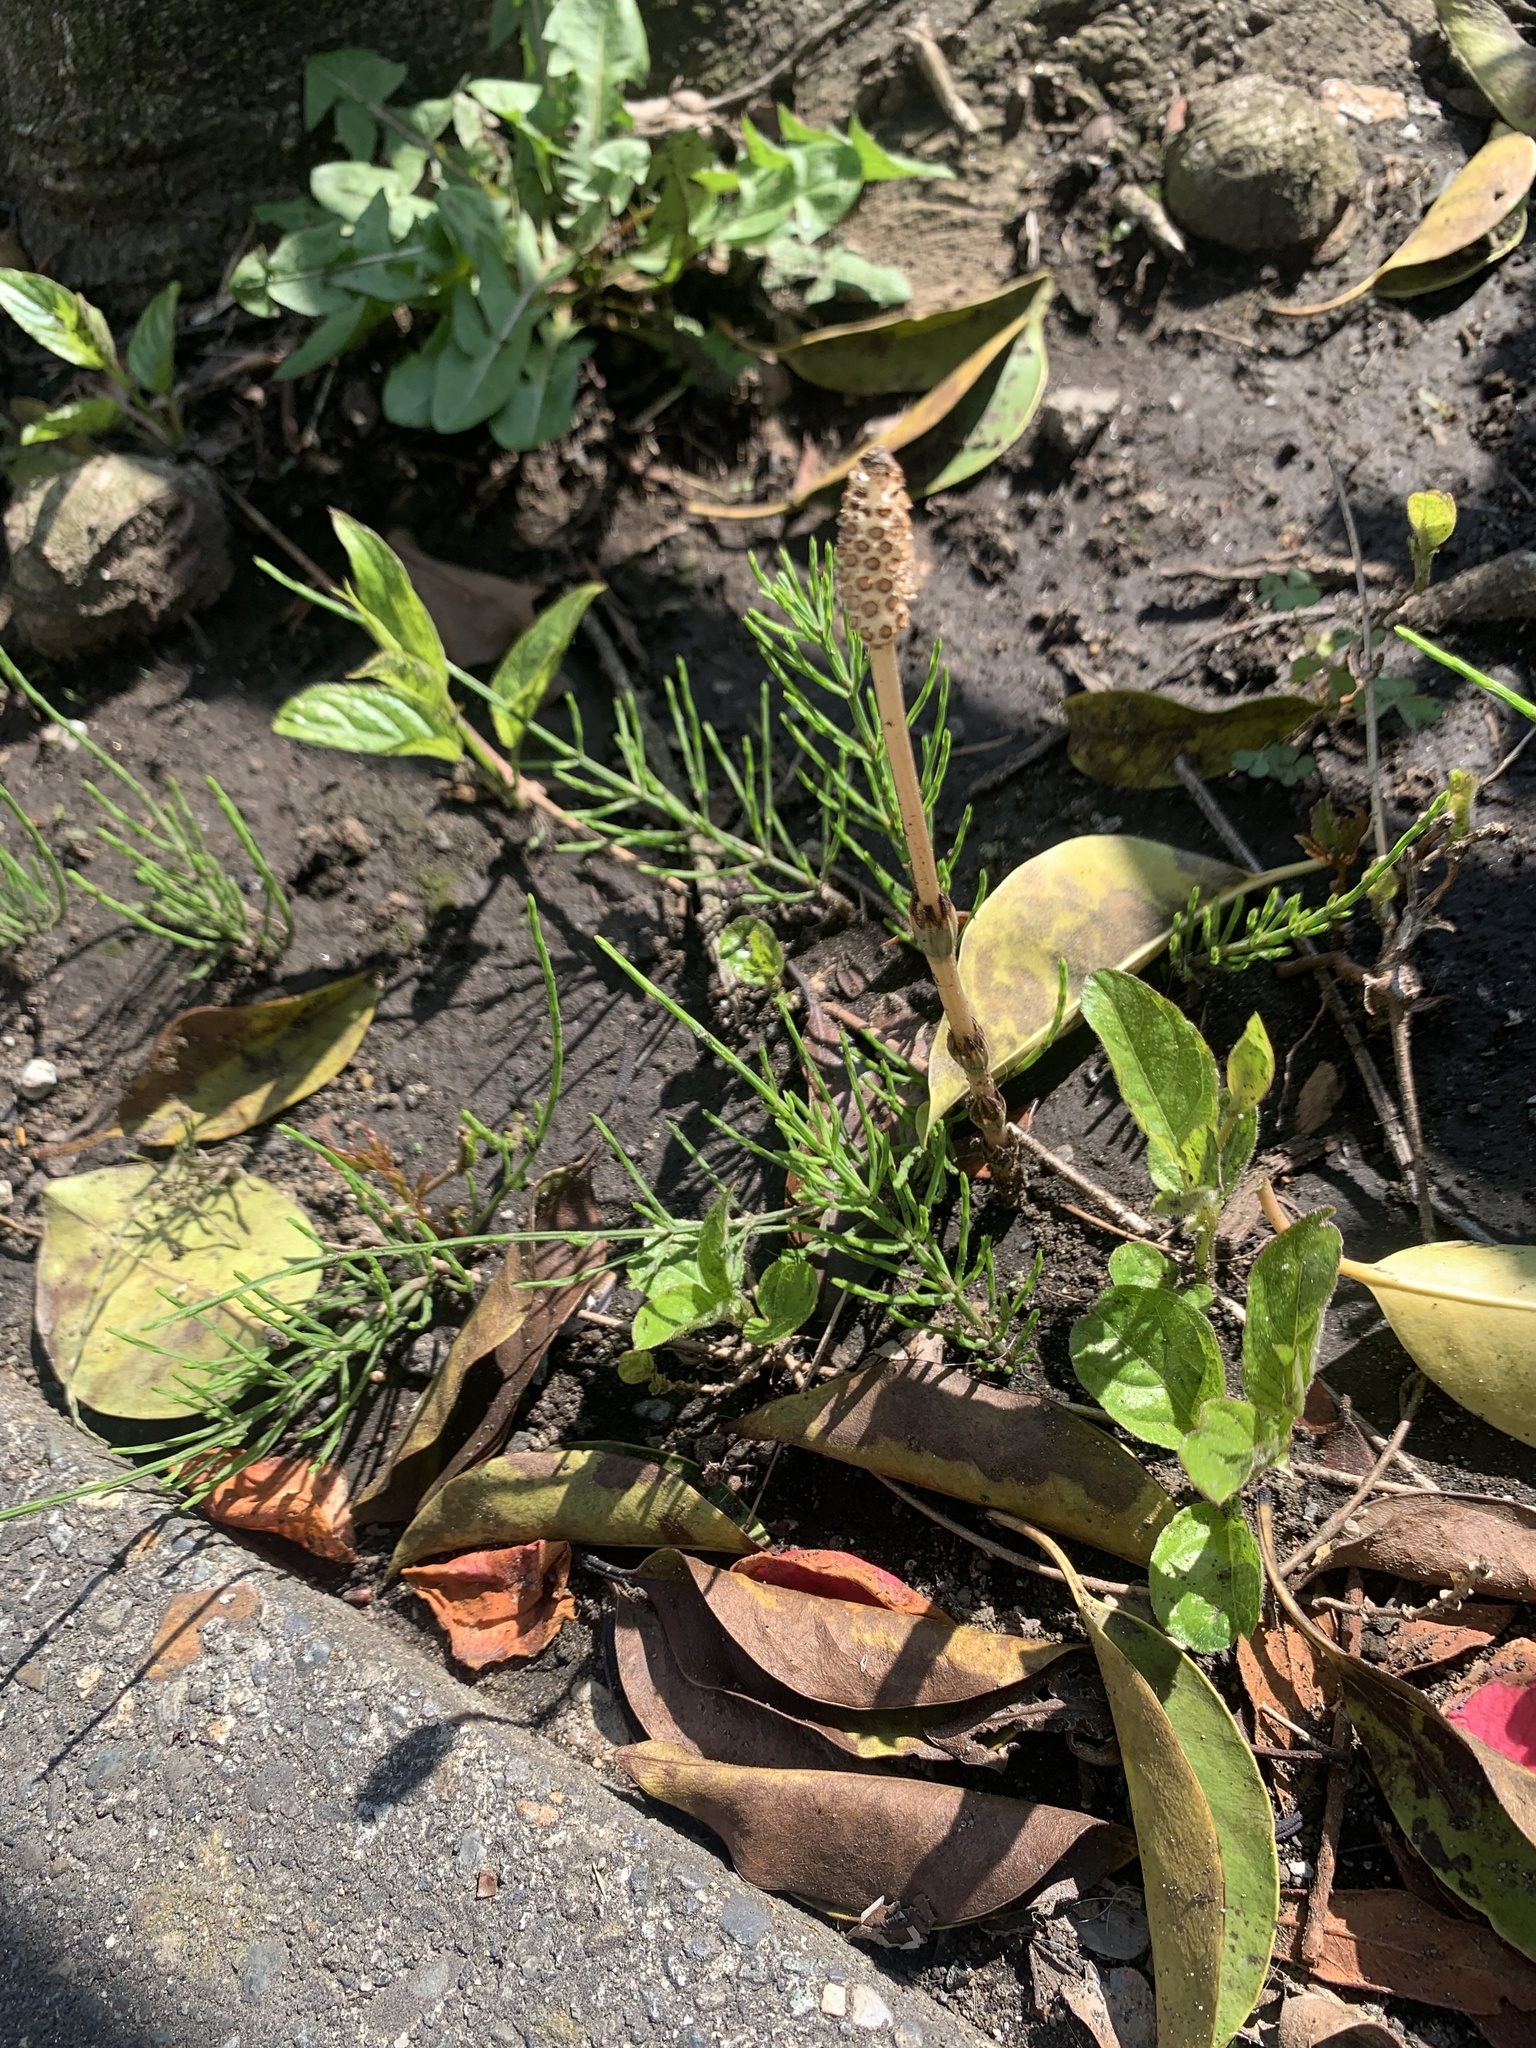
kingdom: Plantae
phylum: Tracheophyta
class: Polypodiopsida
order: Equisetales
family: Equisetaceae
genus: Equisetum
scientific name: Equisetum arvense
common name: Field horsetail
